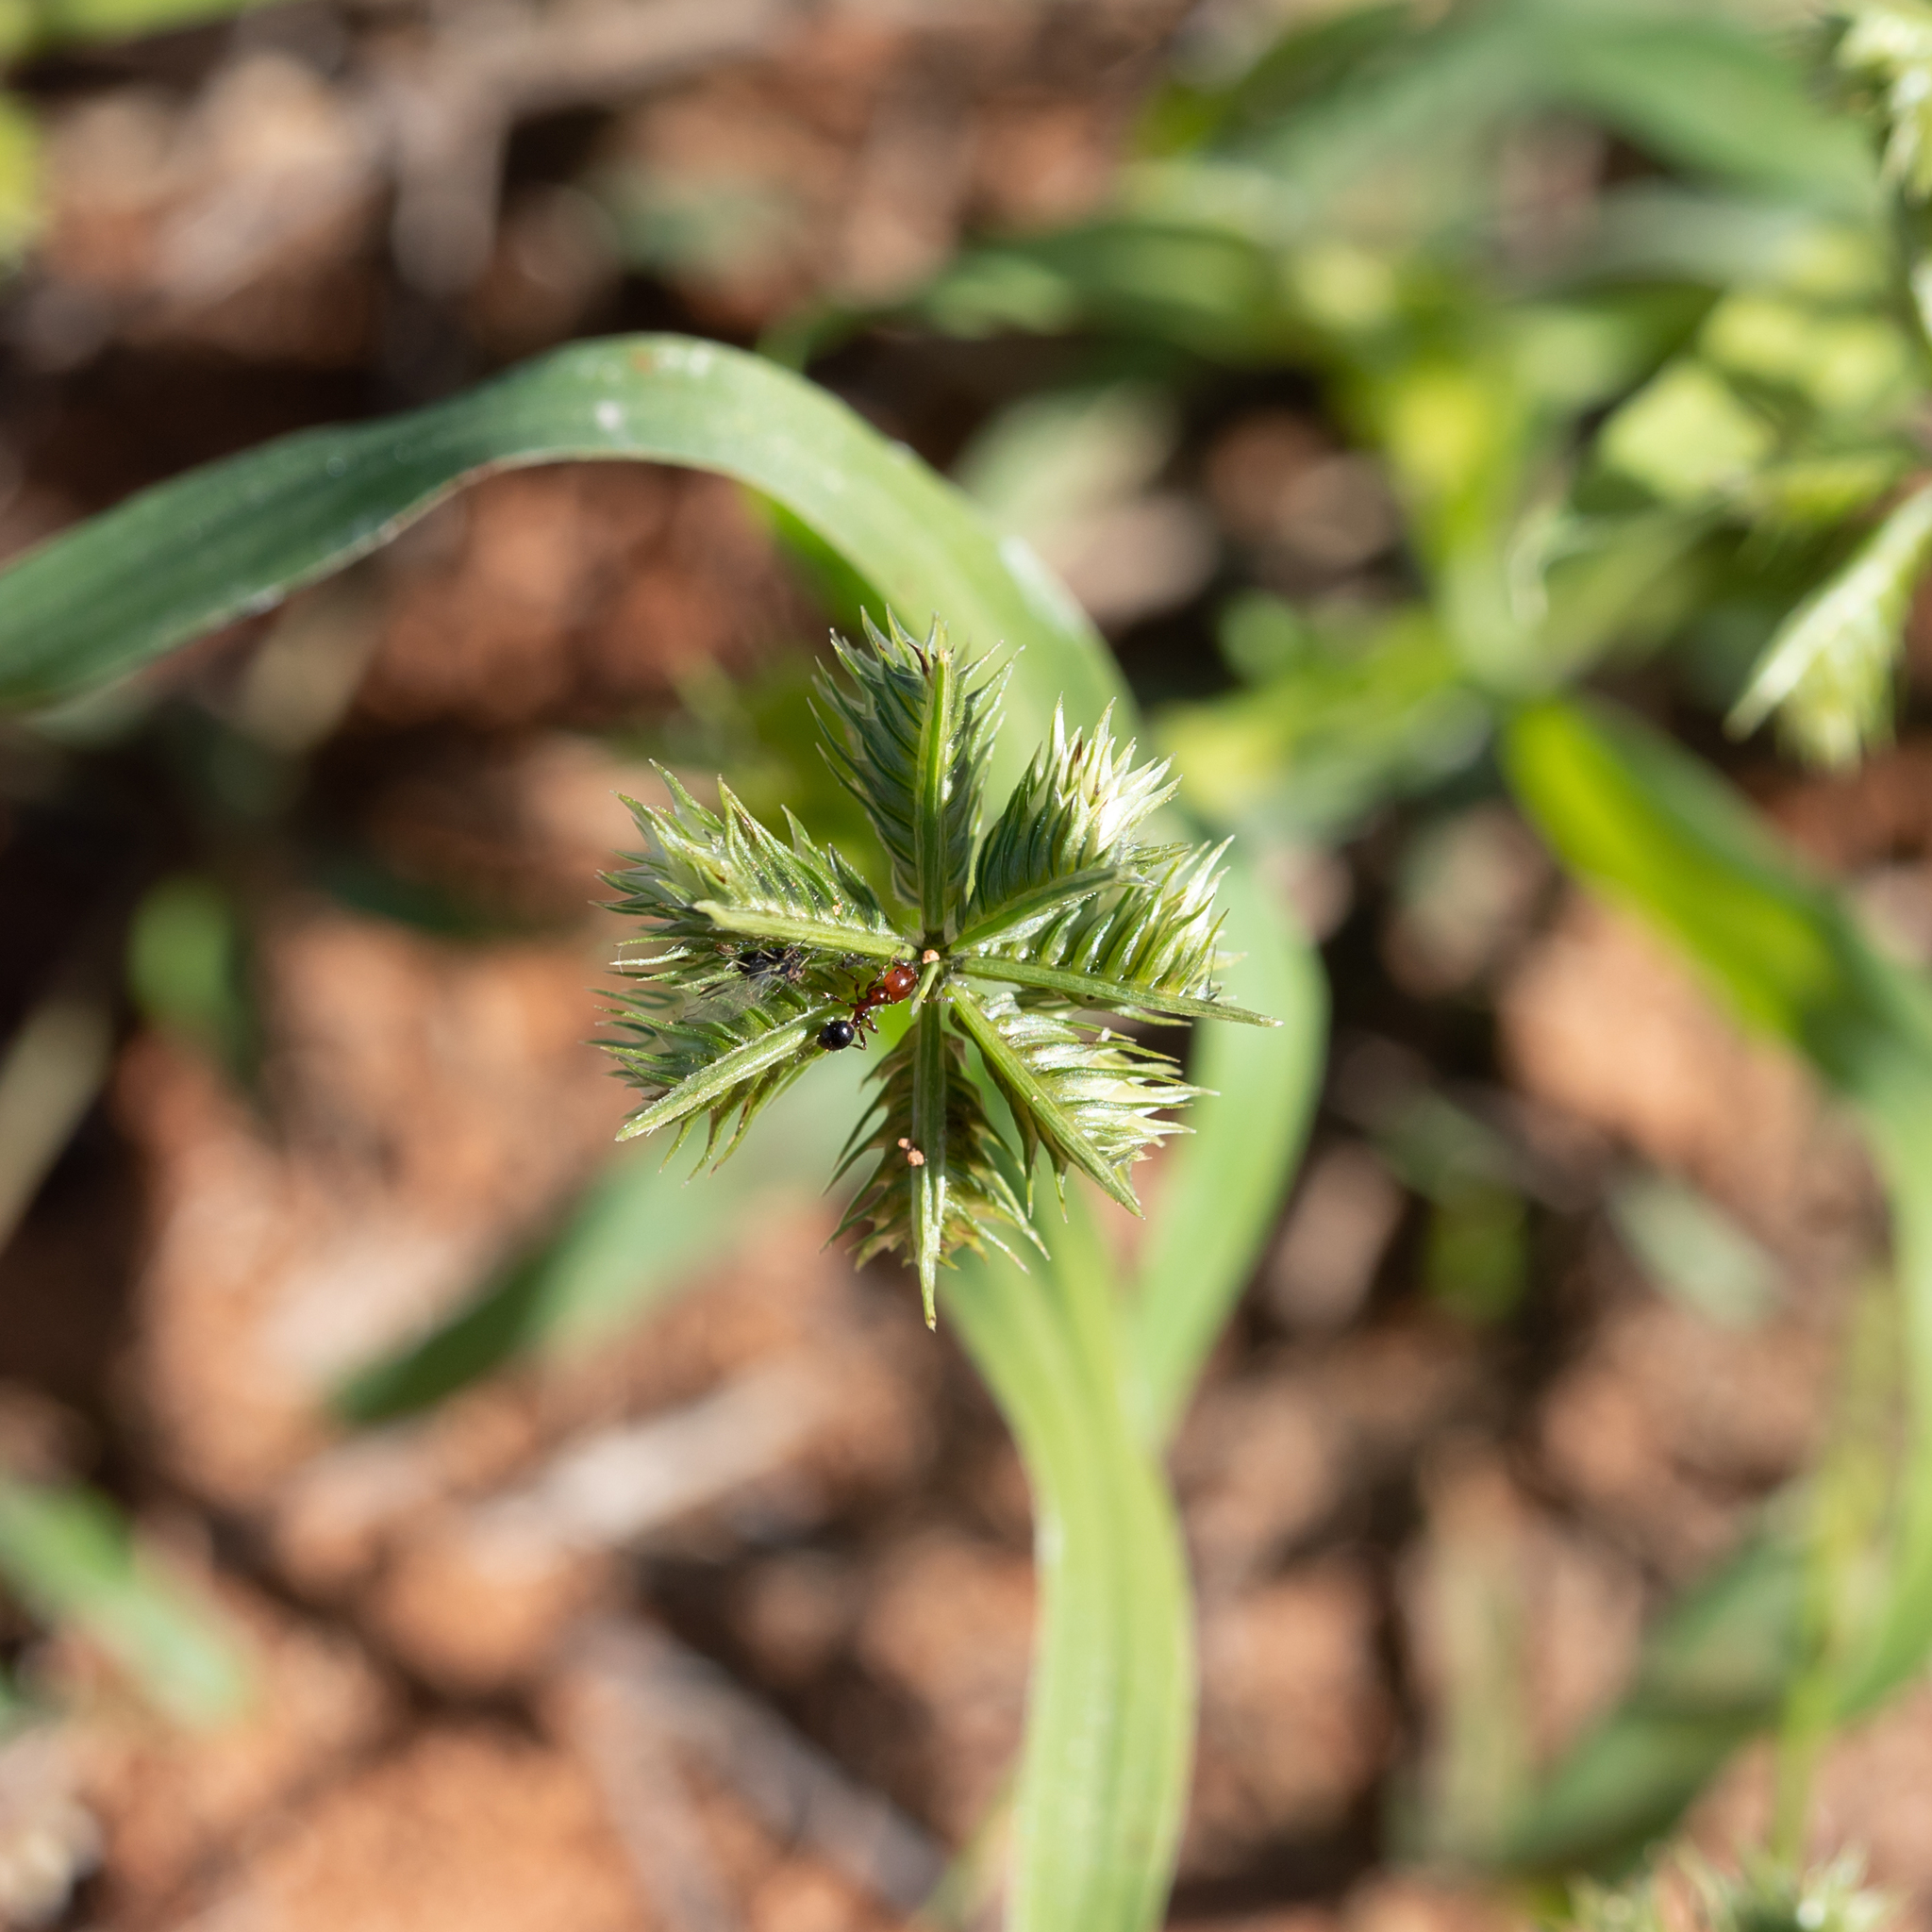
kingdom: Plantae
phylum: Tracheophyta
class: Liliopsida
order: Poales
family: Poaceae
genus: Dactyloctenium
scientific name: Dactyloctenium radulans
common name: Button-grass
